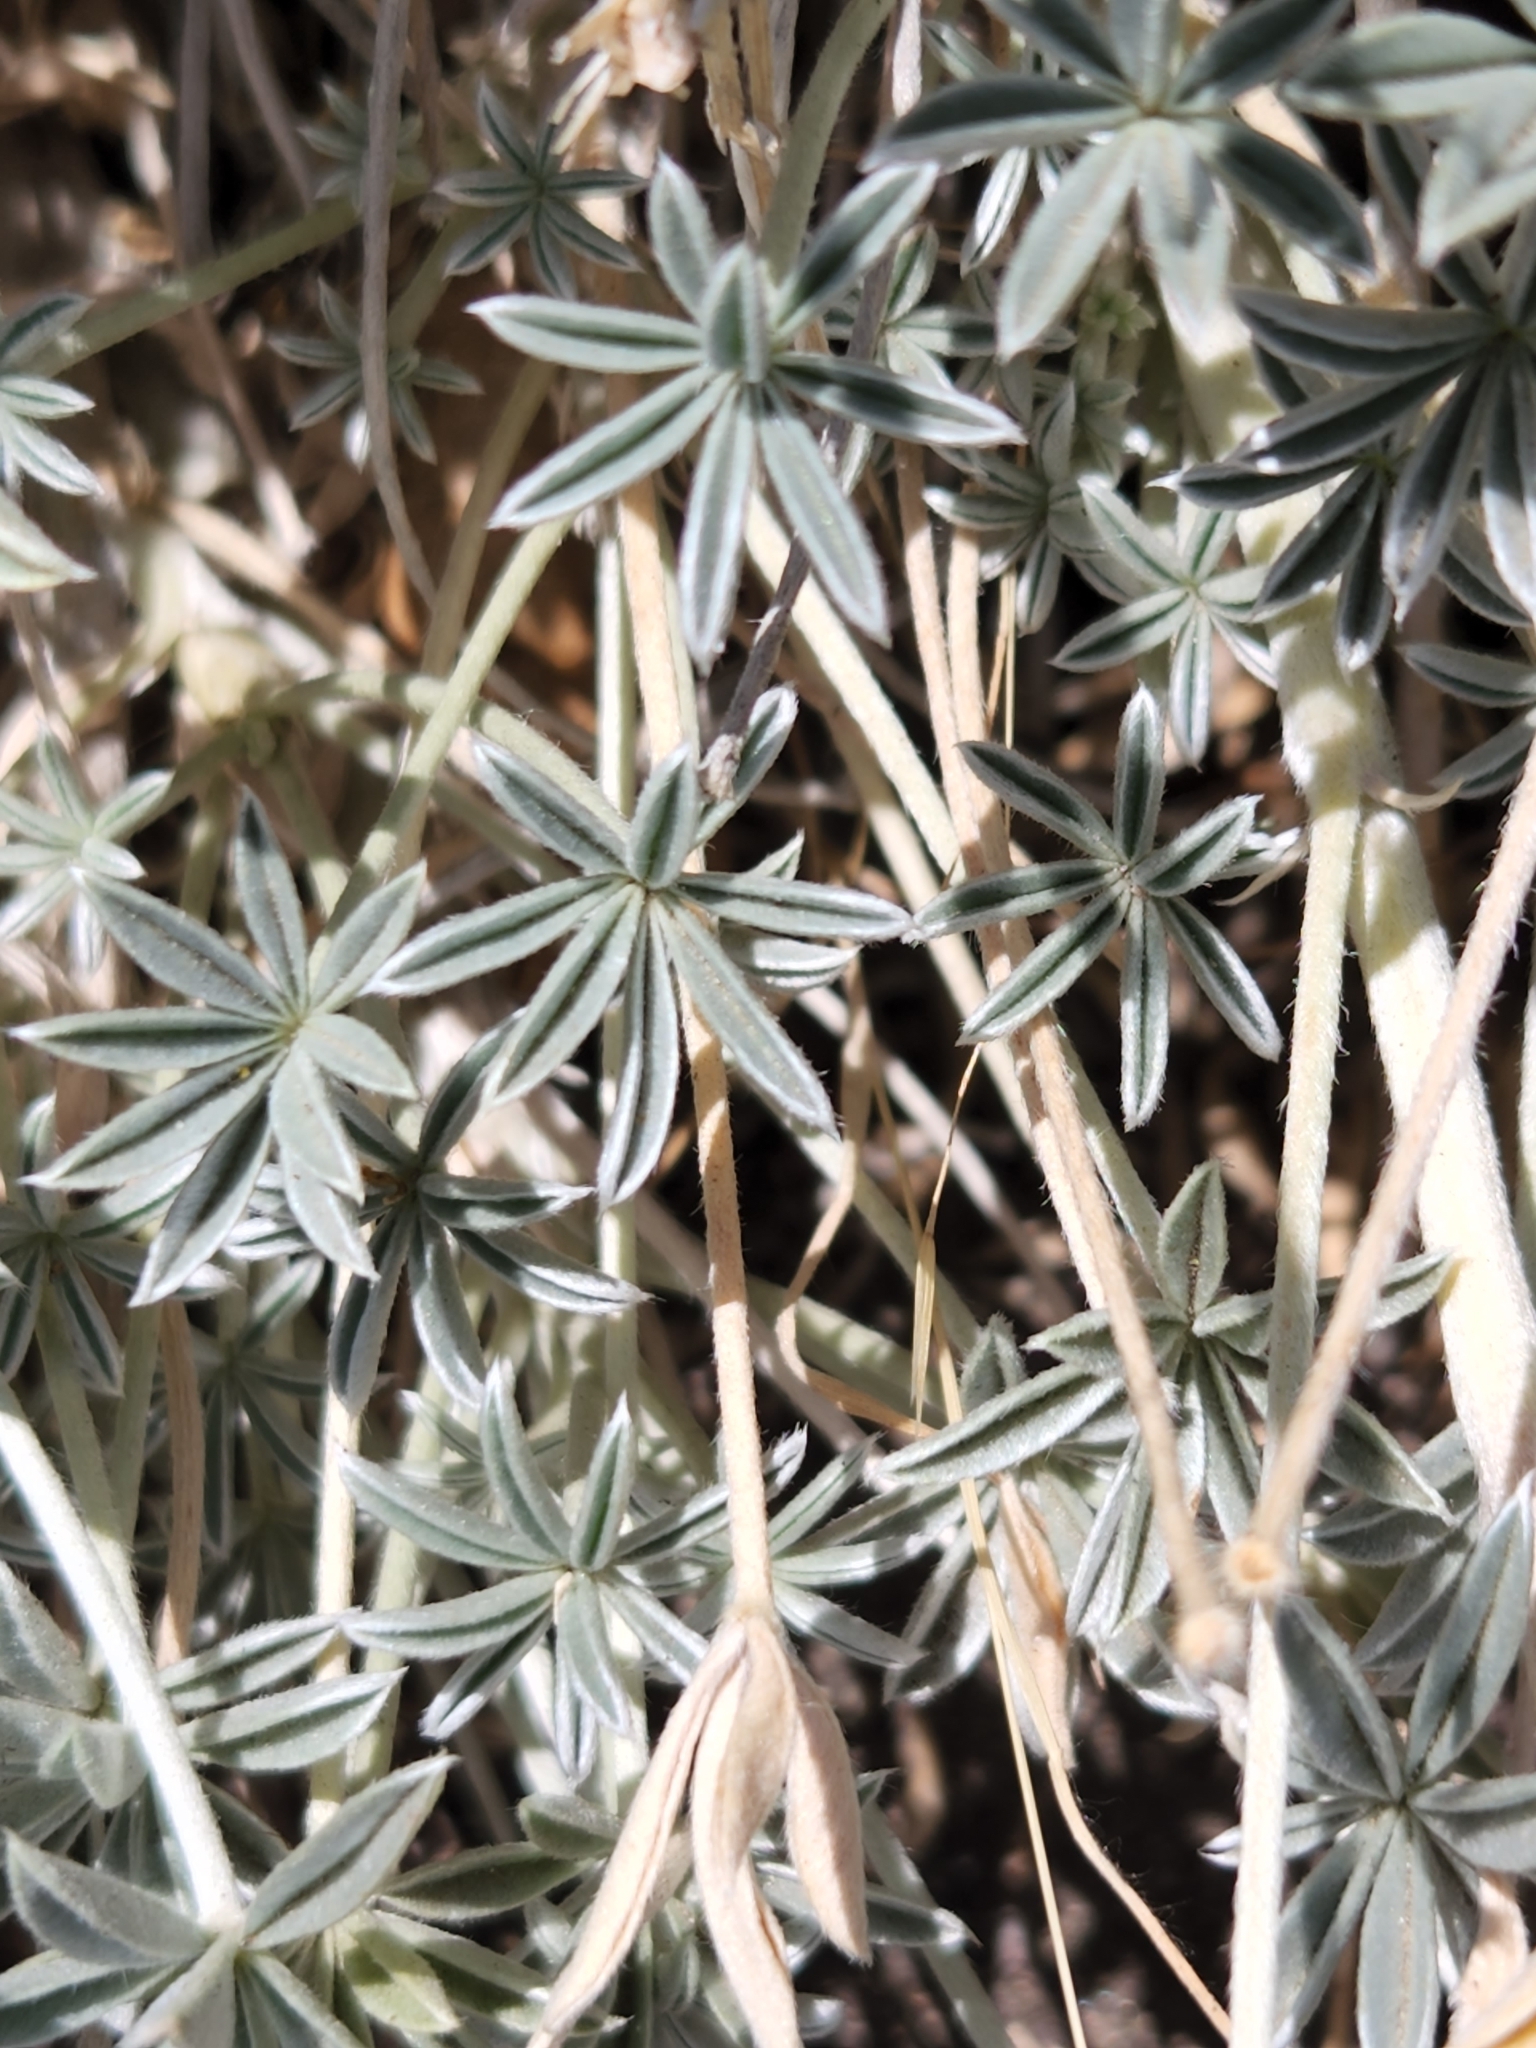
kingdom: Plantae
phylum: Tracheophyta
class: Magnoliopsida
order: Fabales
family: Fabaceae
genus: Lupinus
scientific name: Lupinus excubitus
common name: Grape soda lupine
